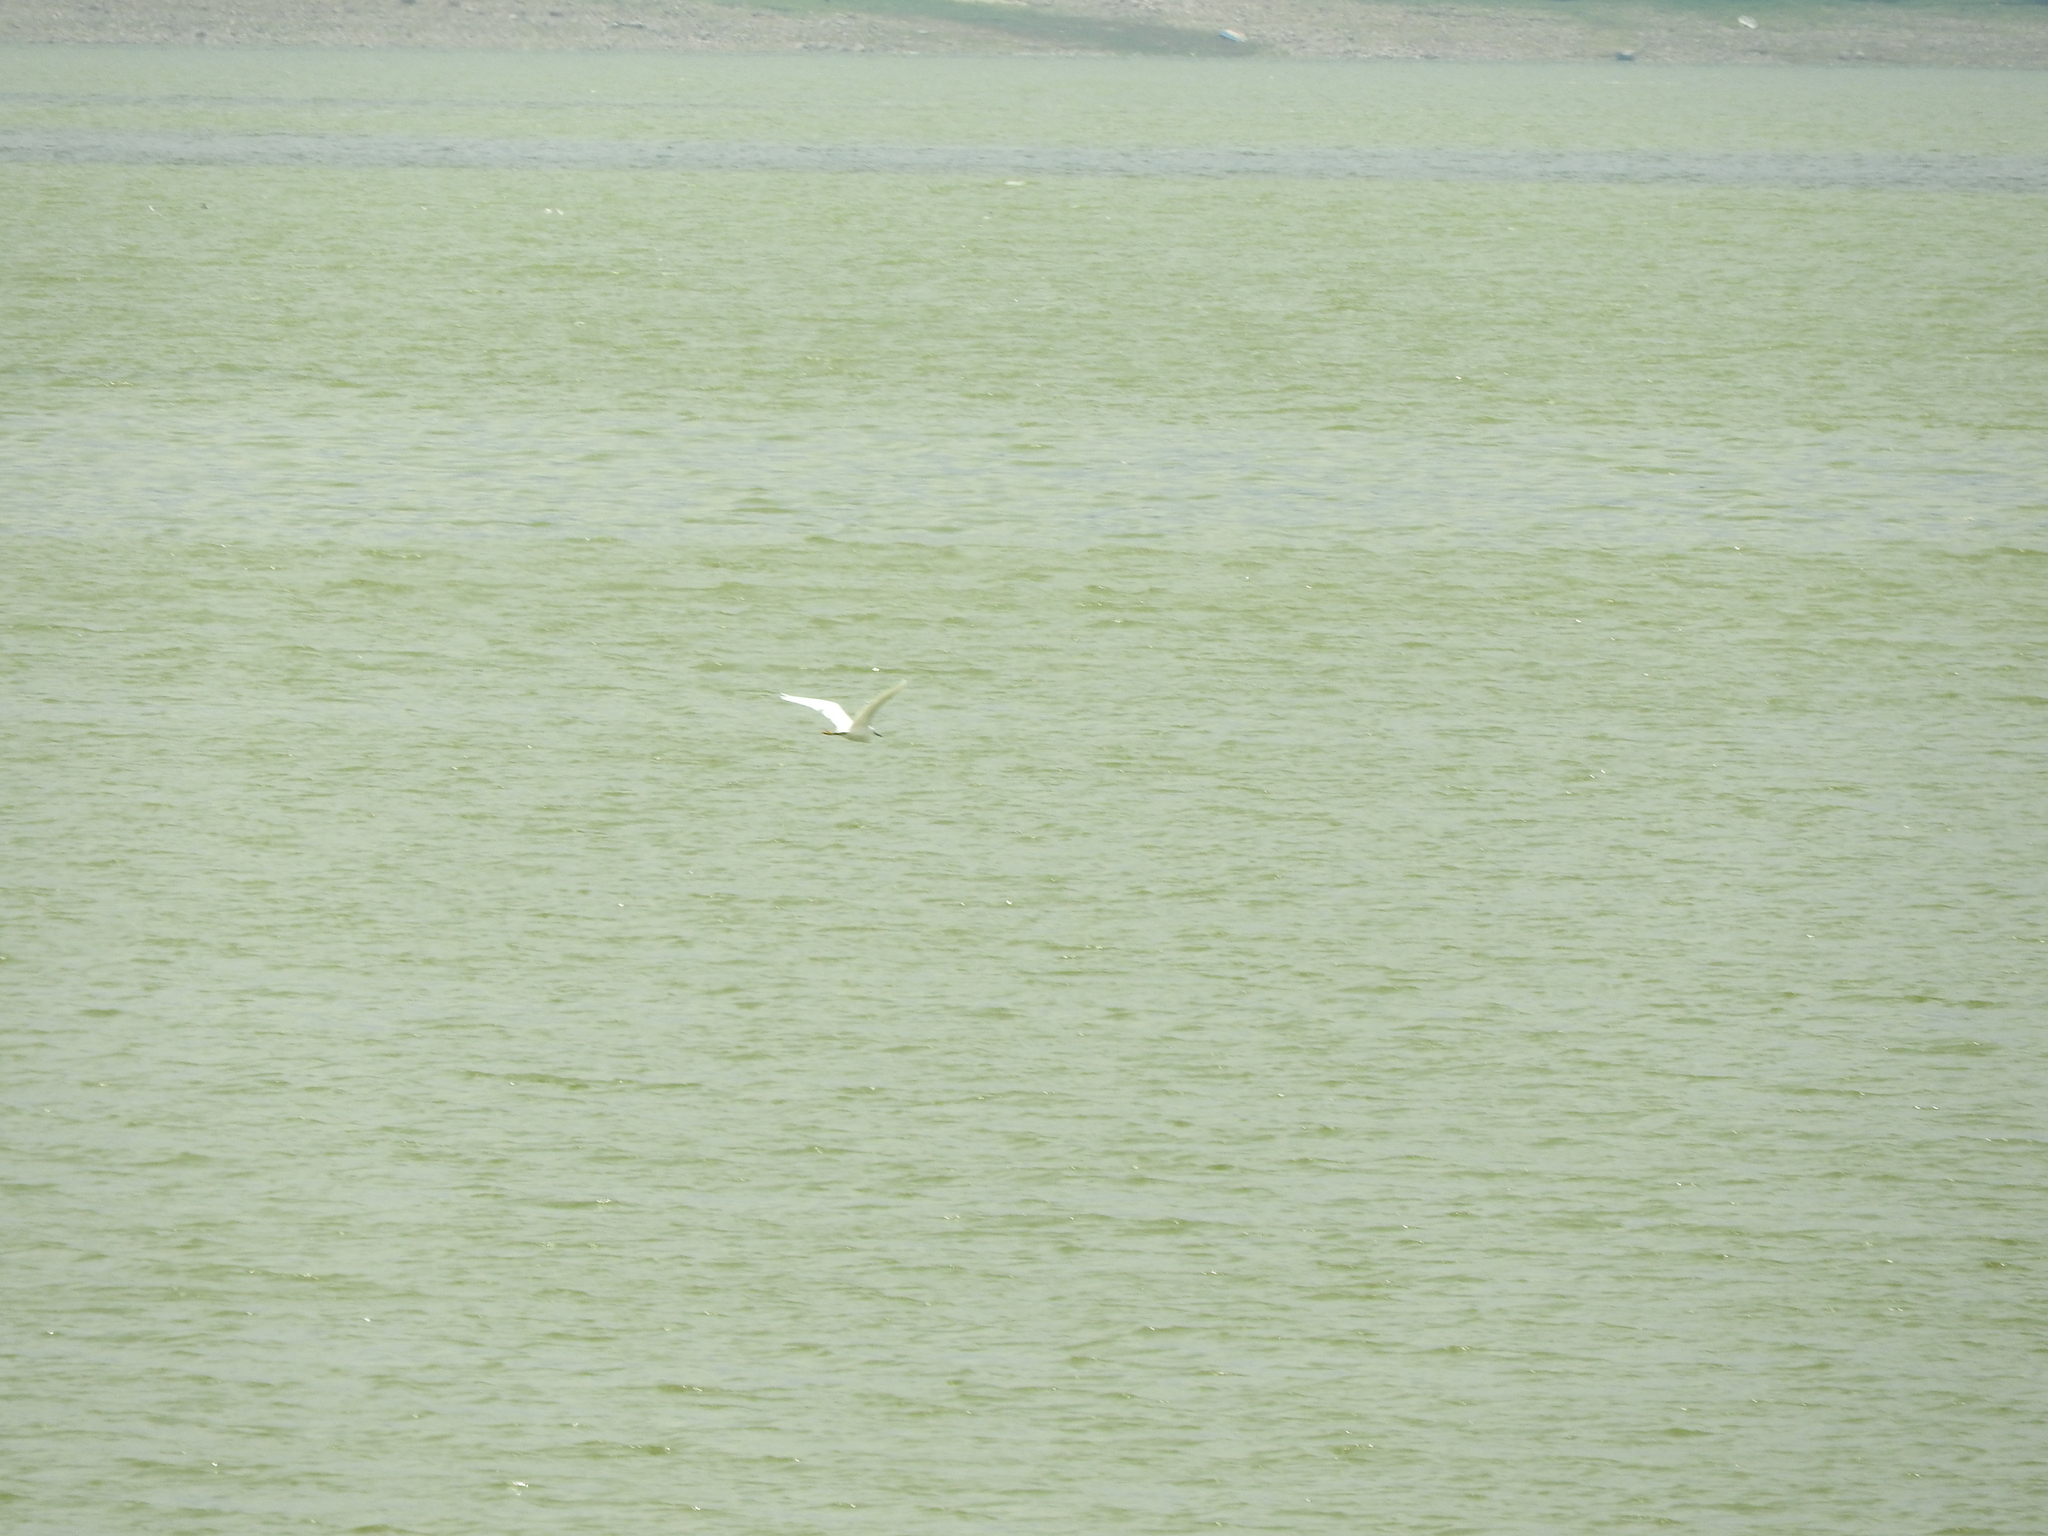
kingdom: Animalia
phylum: Chordata
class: Aves
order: Pelecaniformes
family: Ardeidae
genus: Egretta
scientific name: Egretta thula
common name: Snowy egret
